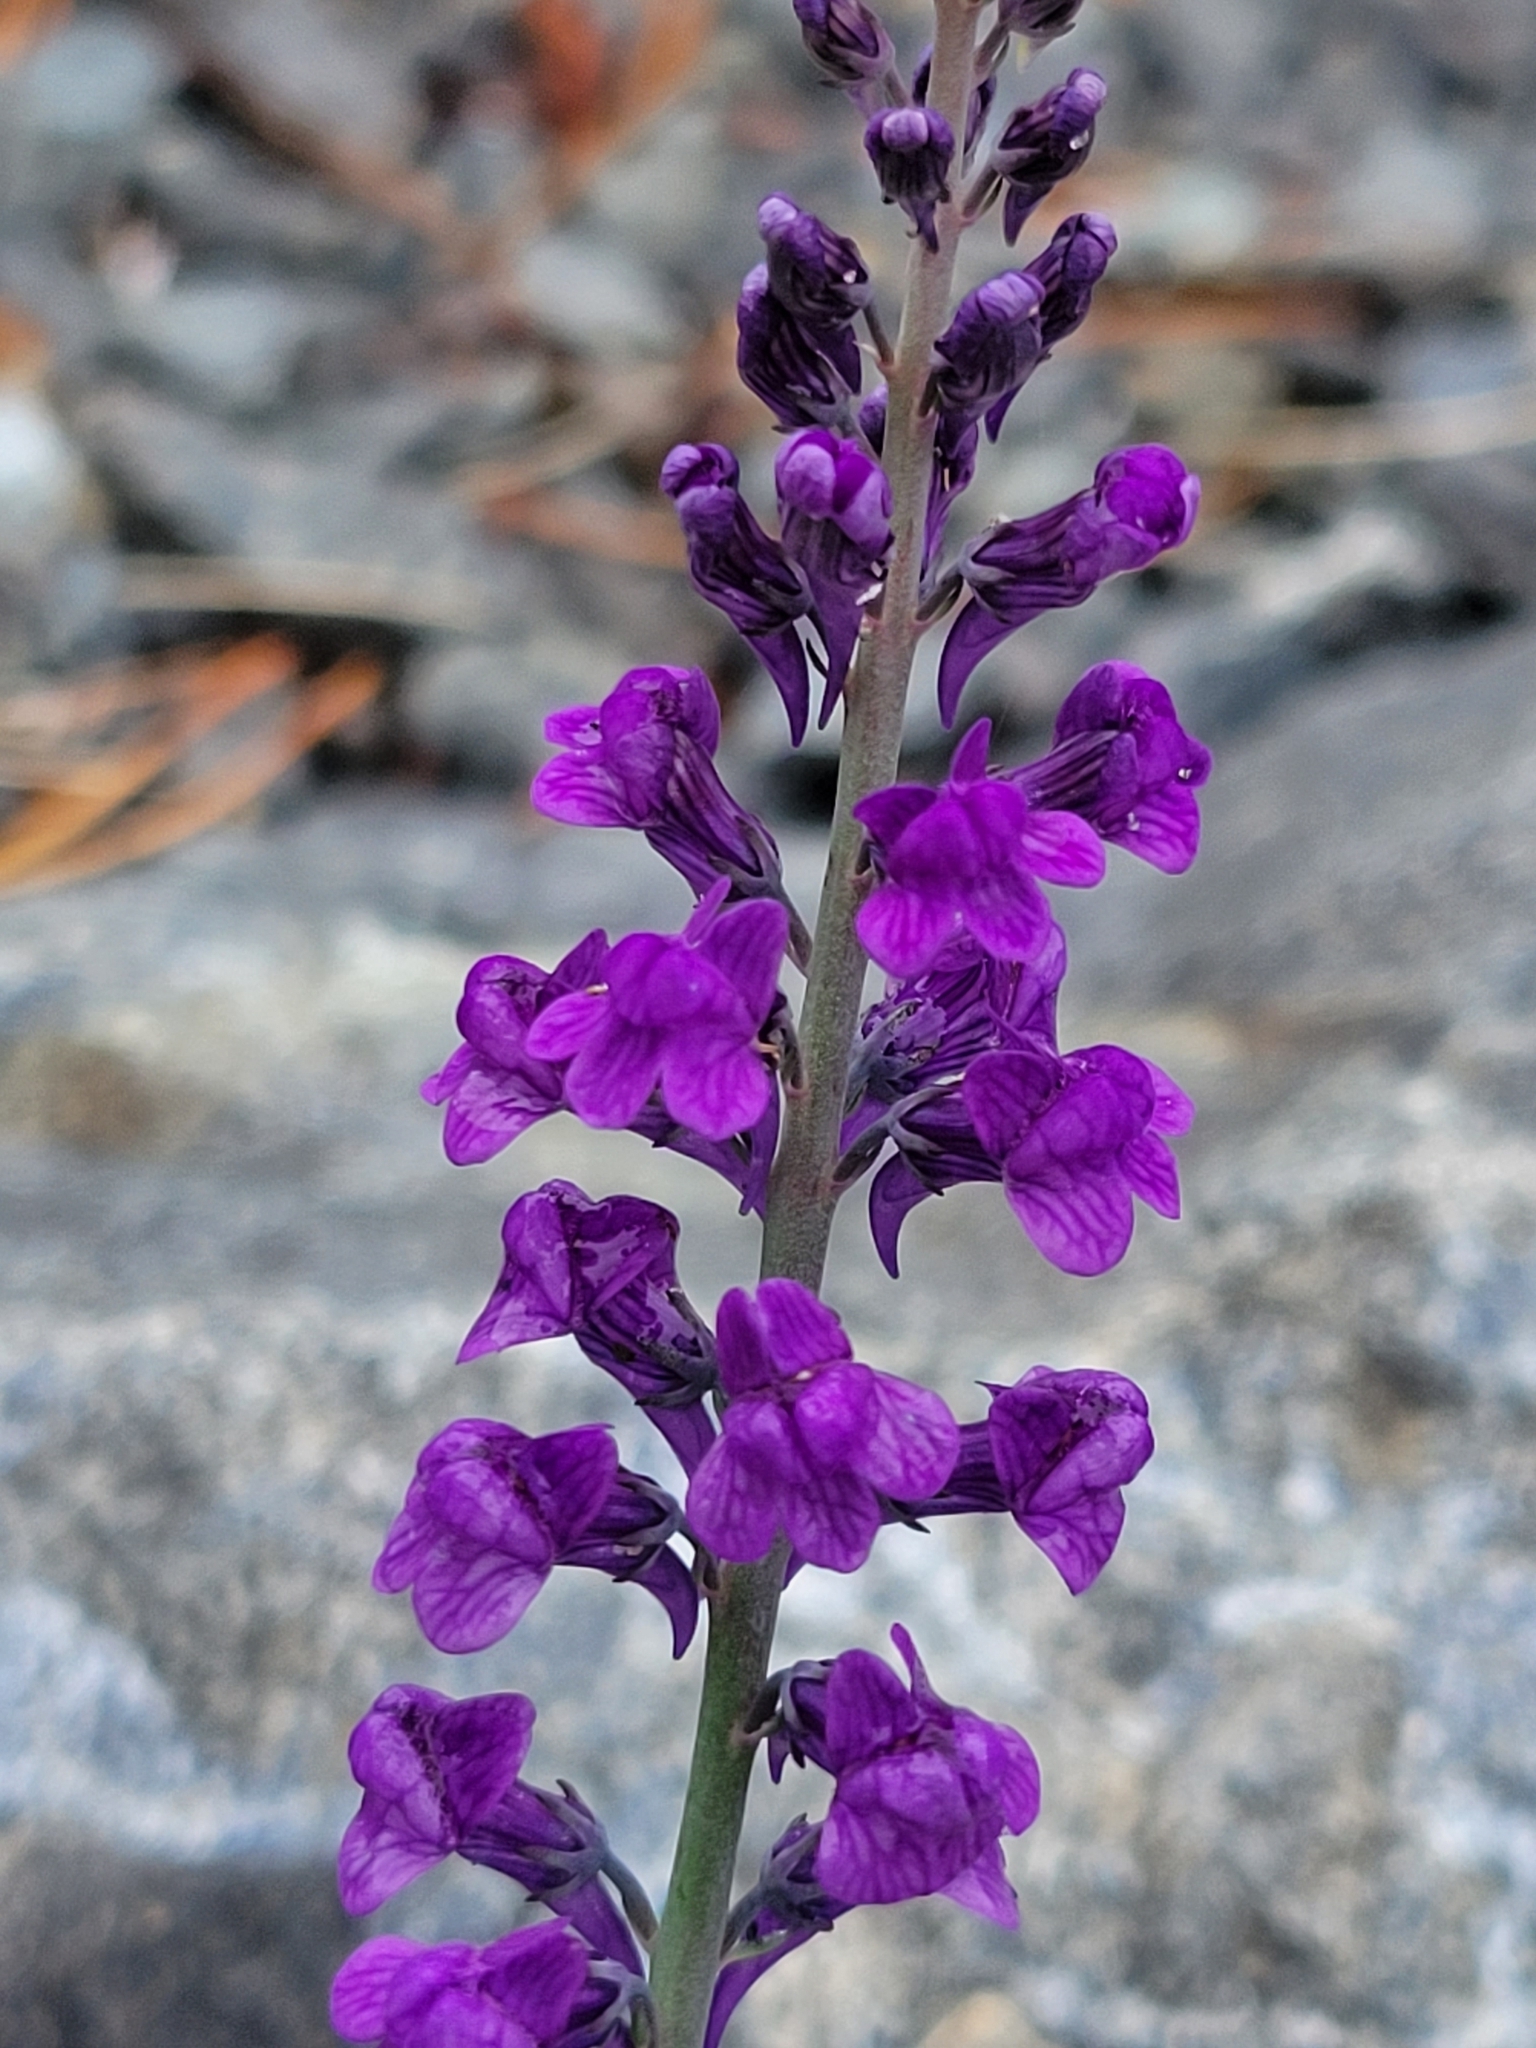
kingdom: Plantae
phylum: Tracheophyta
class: Magnoliopsida
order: Lamiales
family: Plantaginaceae
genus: Linaria
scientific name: Linaria purpurea
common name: Purple toadflax
